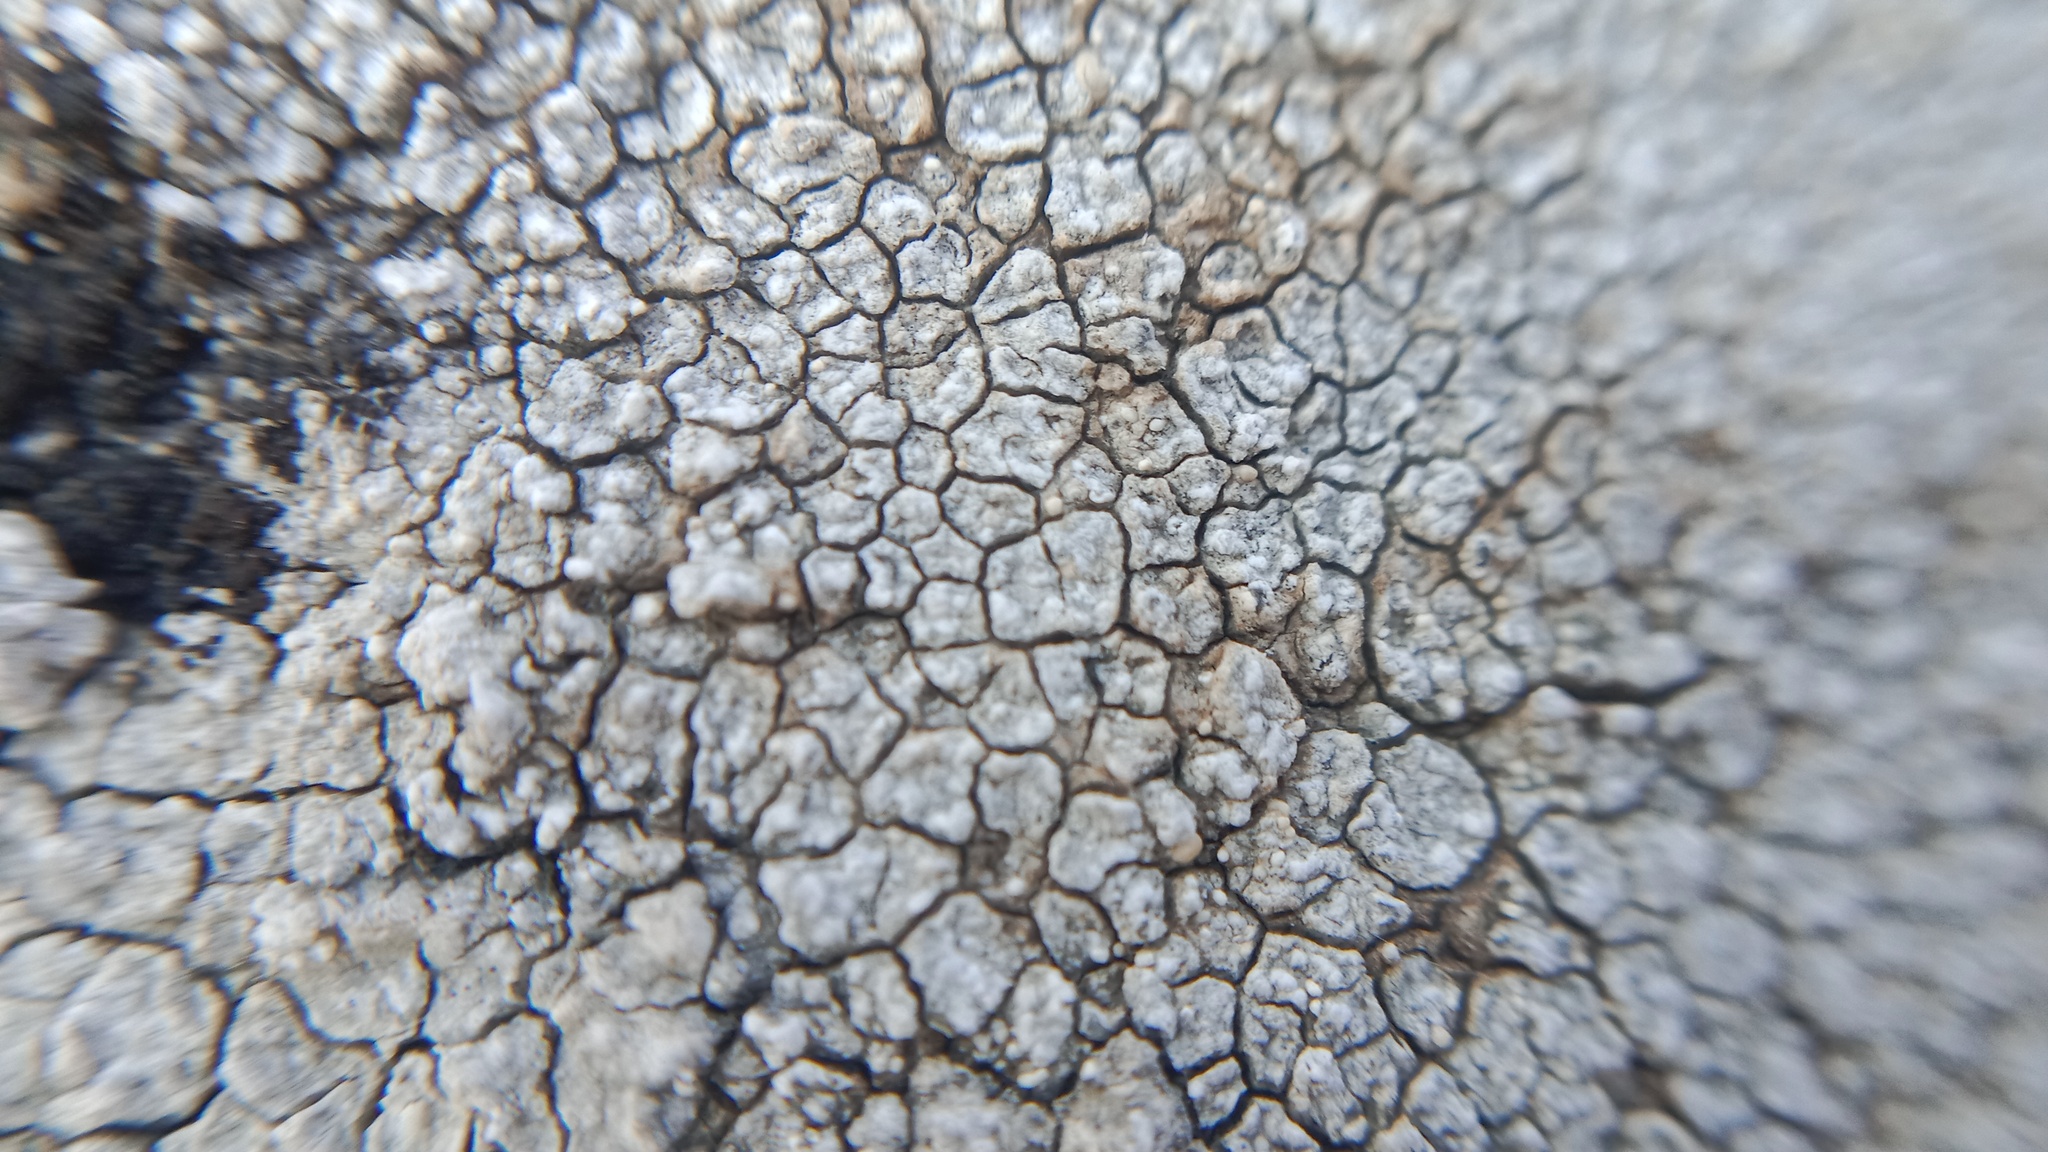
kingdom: Fungi
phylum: Ascomycota
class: Lecanoromycetes
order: Pertusariales
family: Megasporaceae
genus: Circinaria
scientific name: Circinaria calcarea
